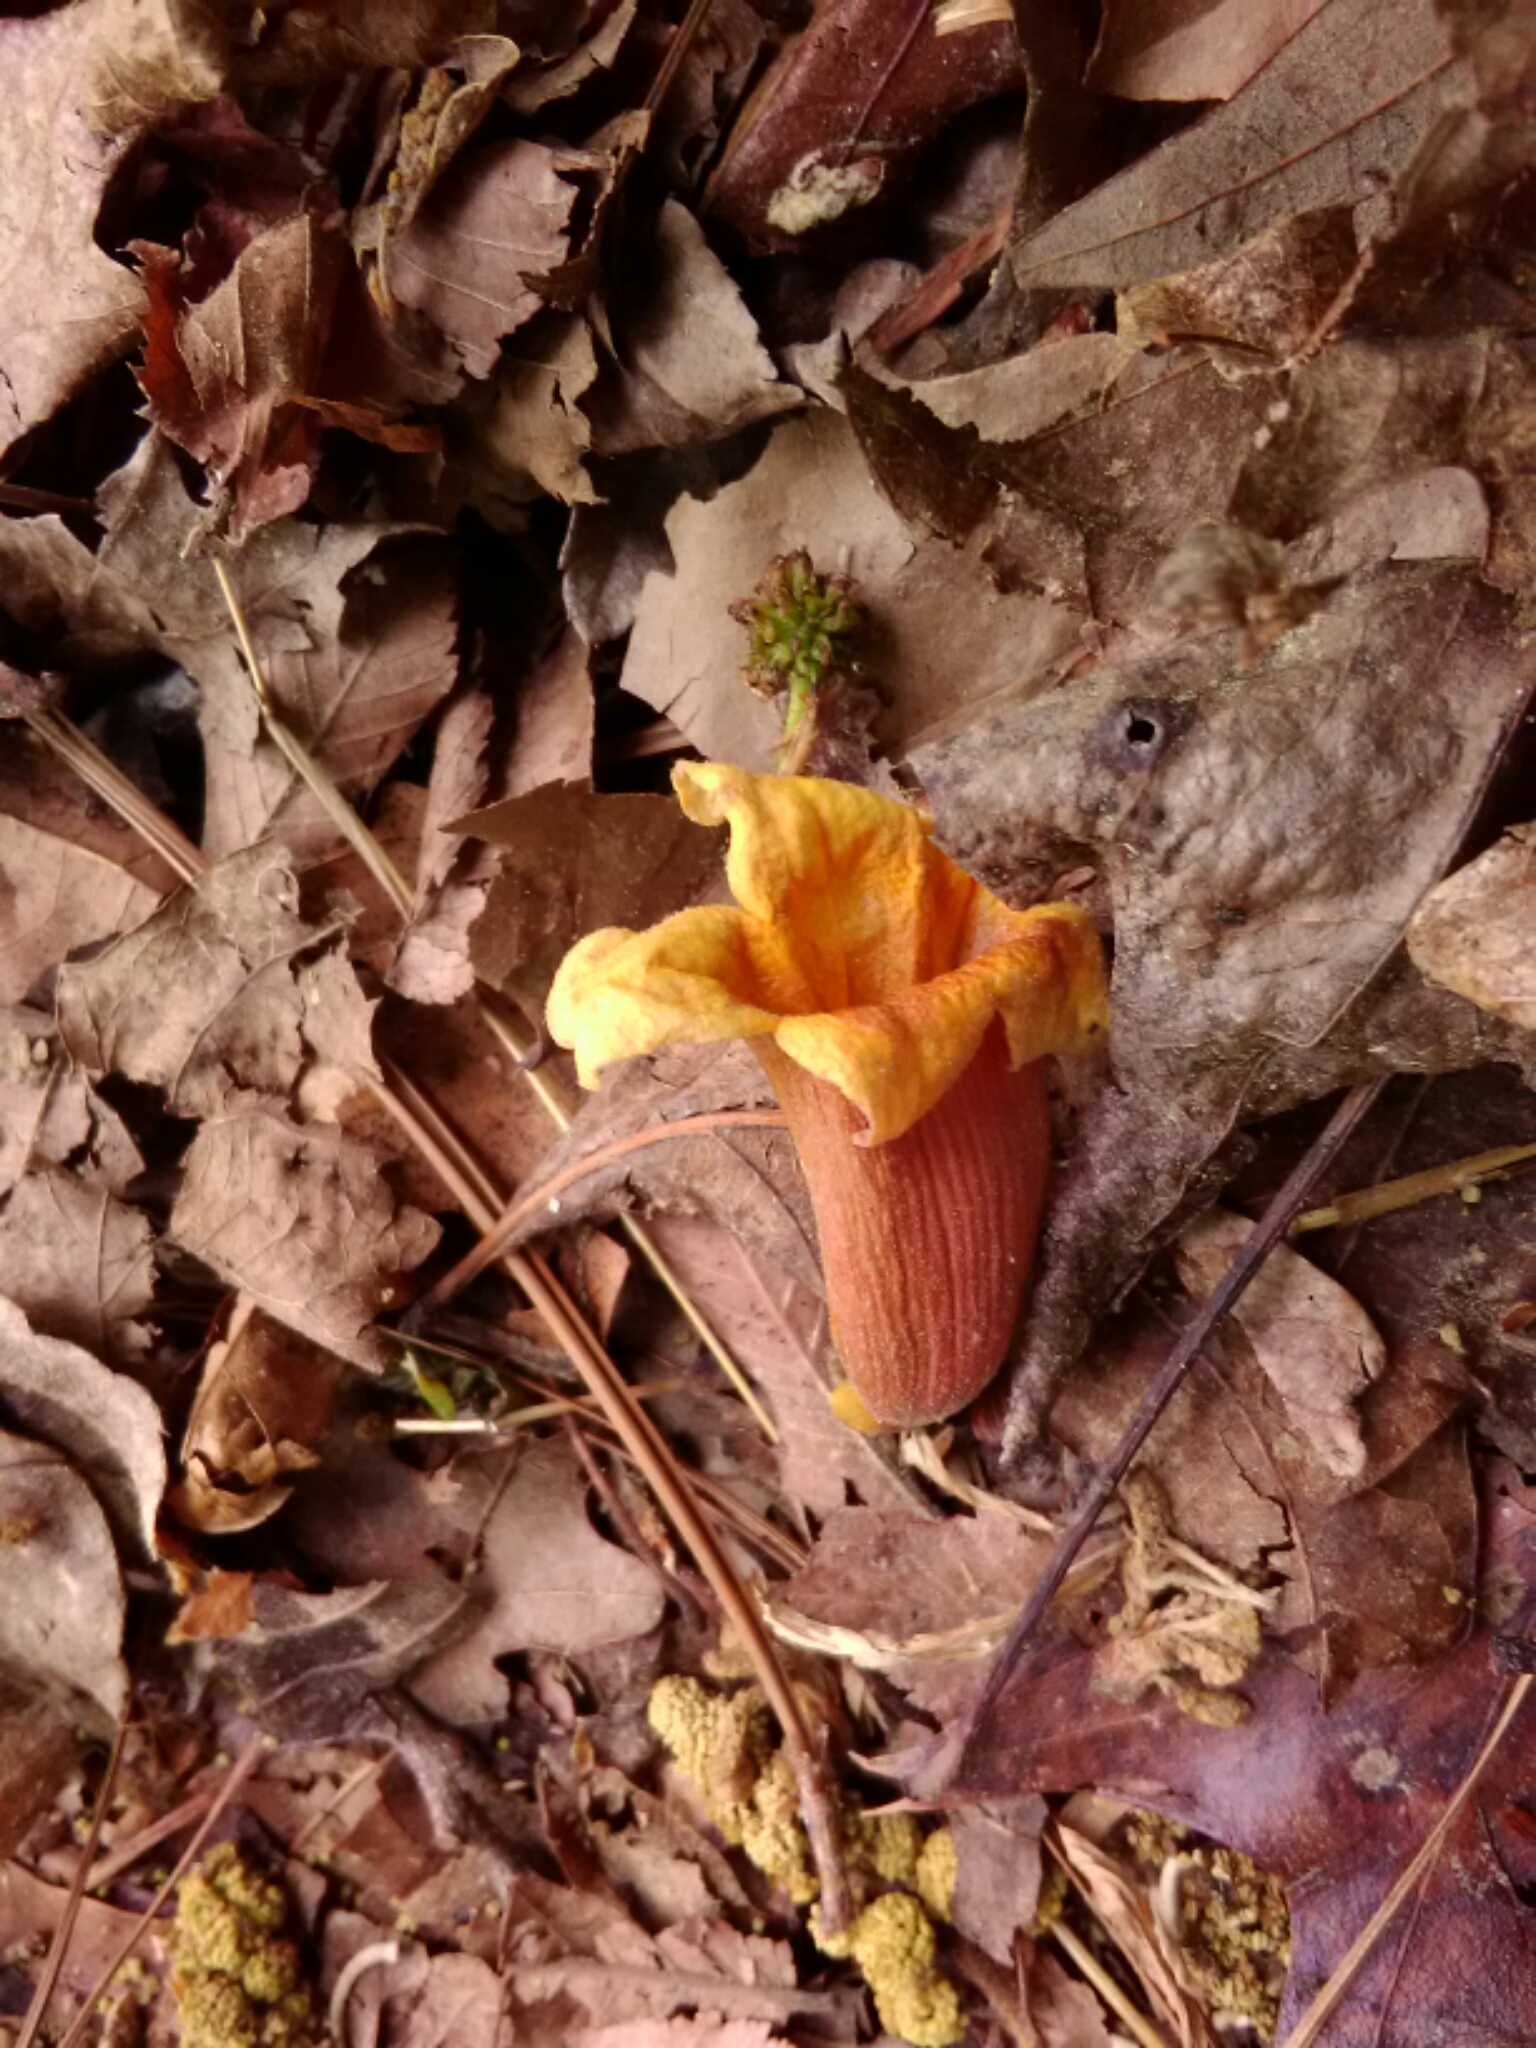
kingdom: Plantae
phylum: Tracheophyta
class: Magnoliopsida
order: Lamiales
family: Bignoniaceae
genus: Bignonia
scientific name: Bignonia capreolata
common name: Crossvine
